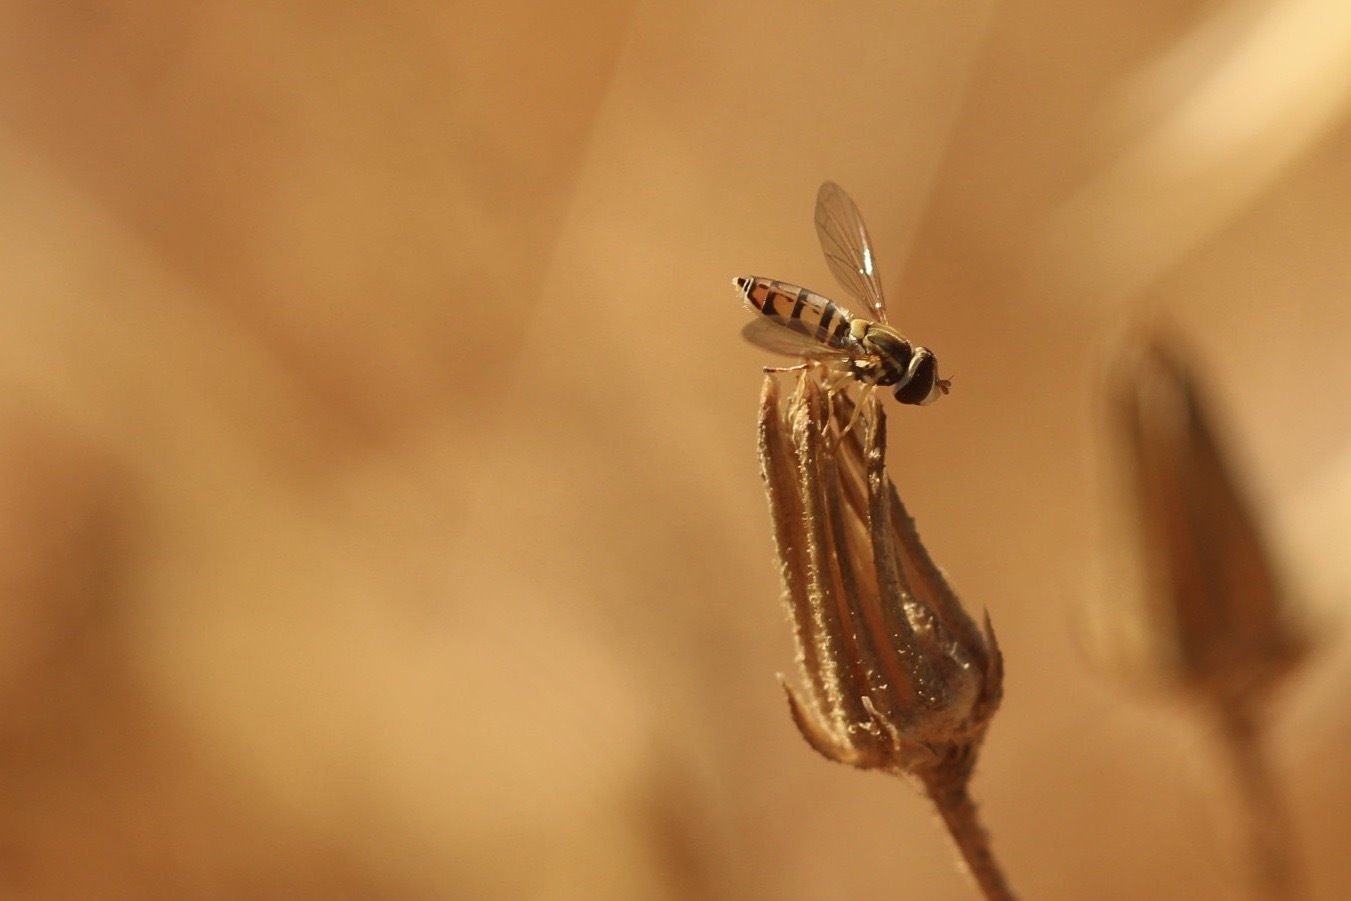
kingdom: Animalia
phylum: Arthropoda
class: Insecta
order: Diptera
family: Syrphidae
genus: Toxomerus
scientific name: Toxomerus marginatus
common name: Syrphid fly
